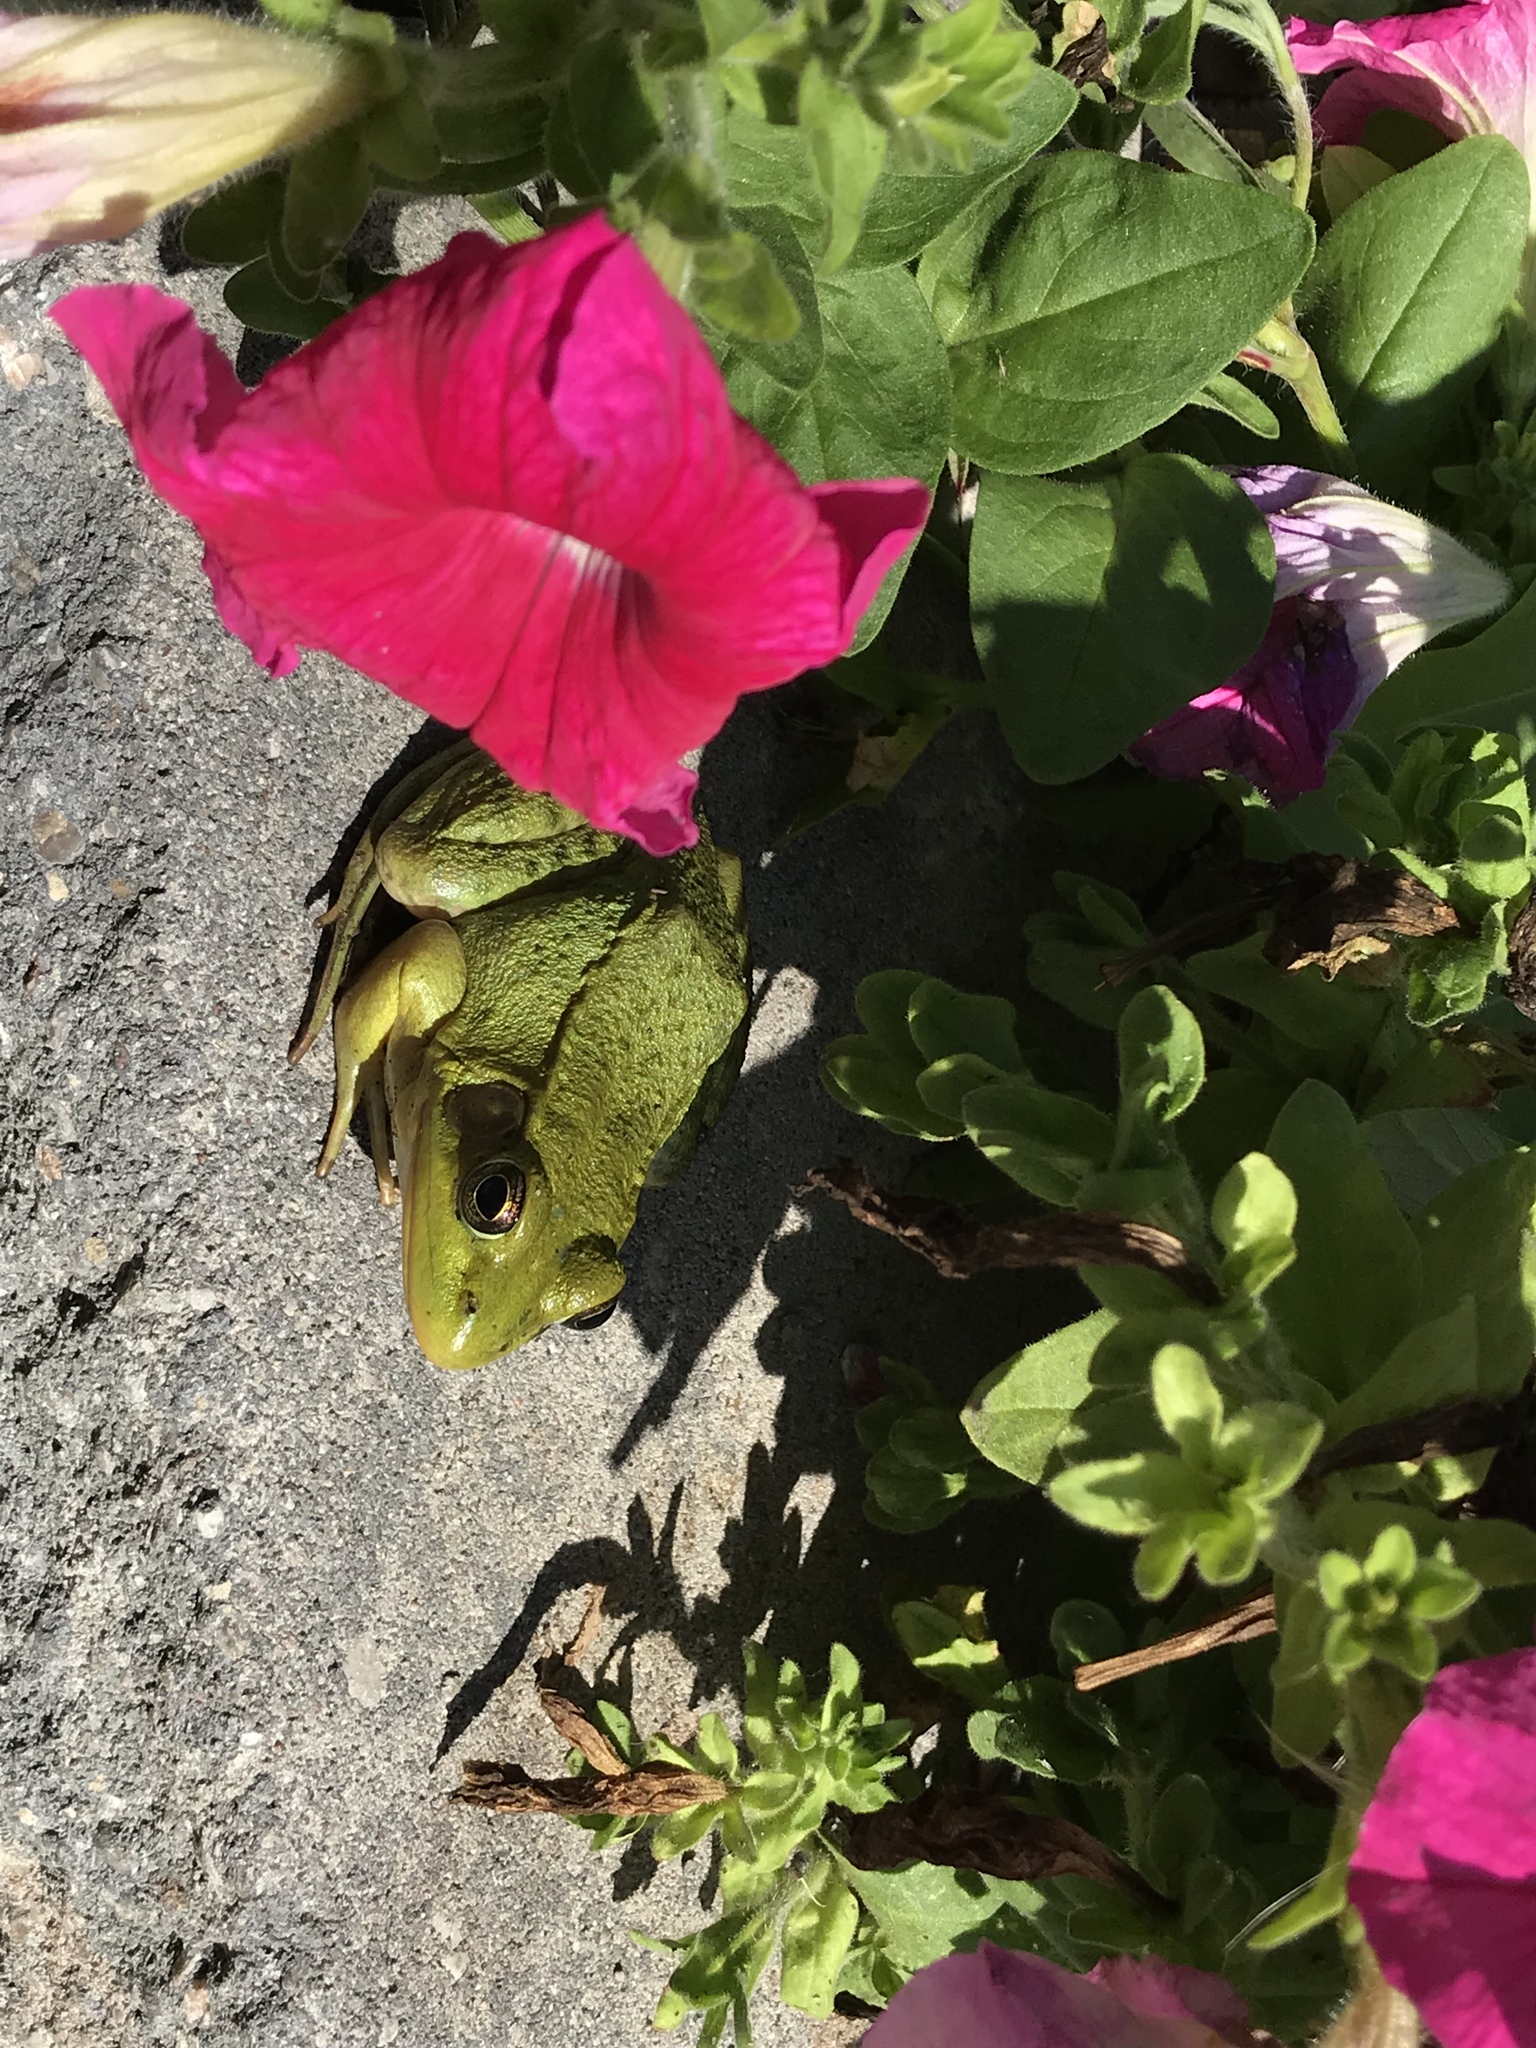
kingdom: Animalia
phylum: Chordata
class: Amphibia
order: Anura
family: Ranidae
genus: Lithobates
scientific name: Lithobates clamitans
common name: Green frog
